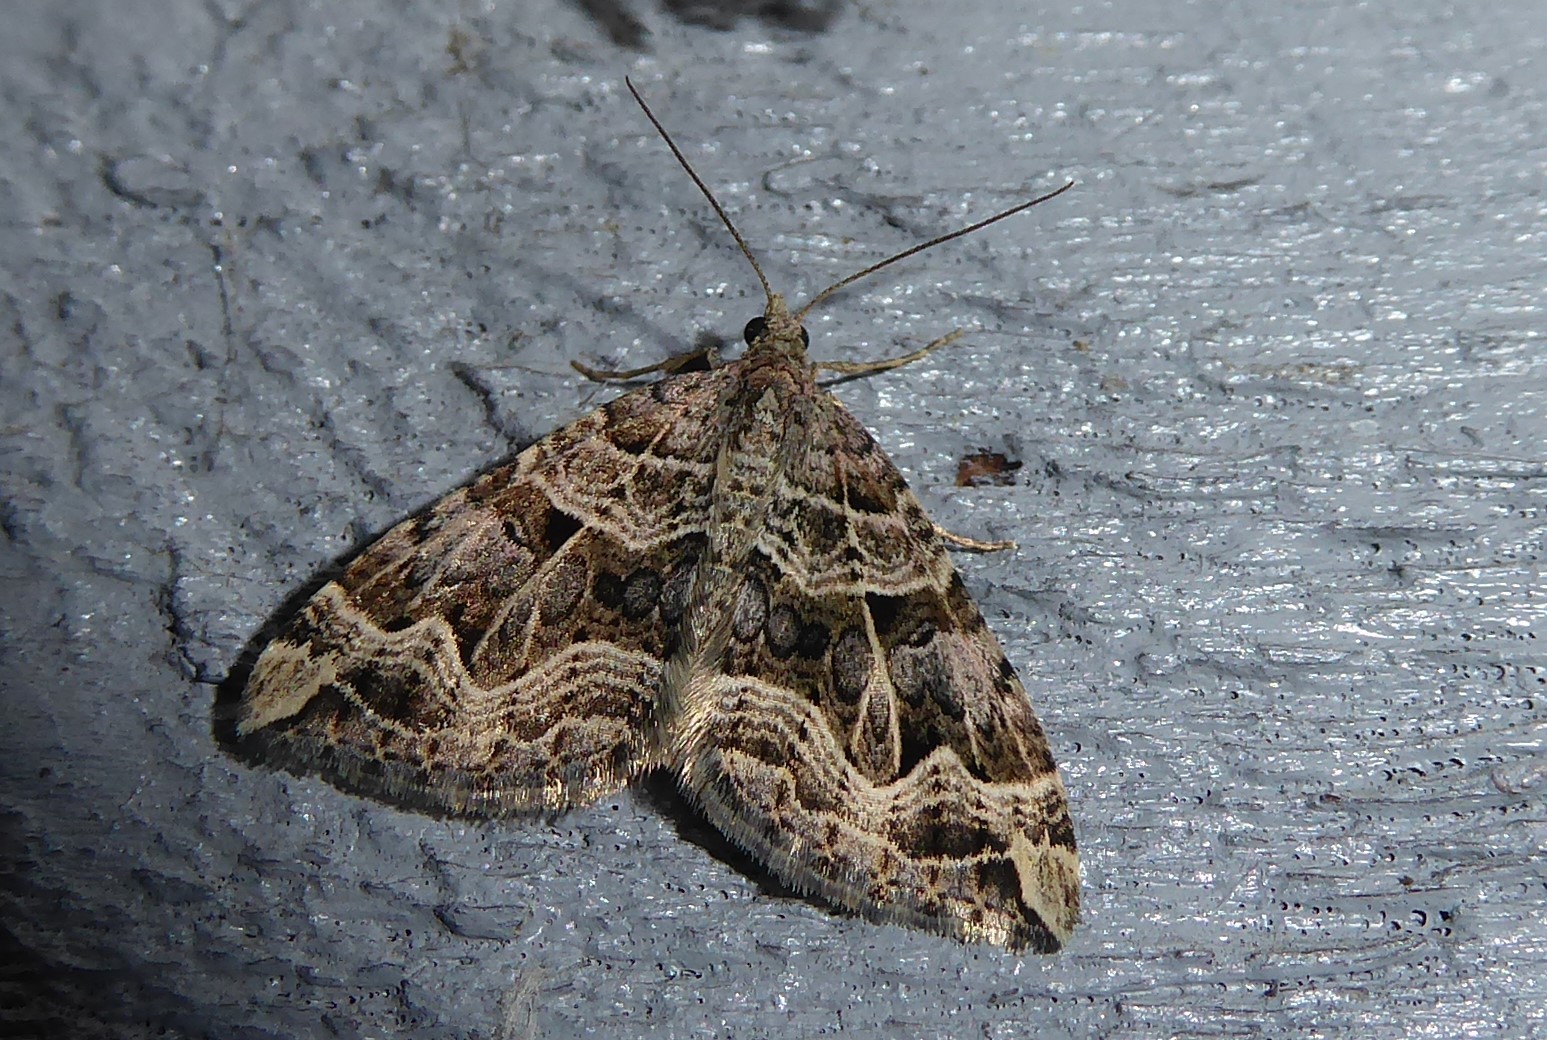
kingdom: Animalia
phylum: Arthropoda
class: Insecta
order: Lepidoptera
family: Geometridae
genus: Xanthorhoe
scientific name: Xanthorhoe semifissata
